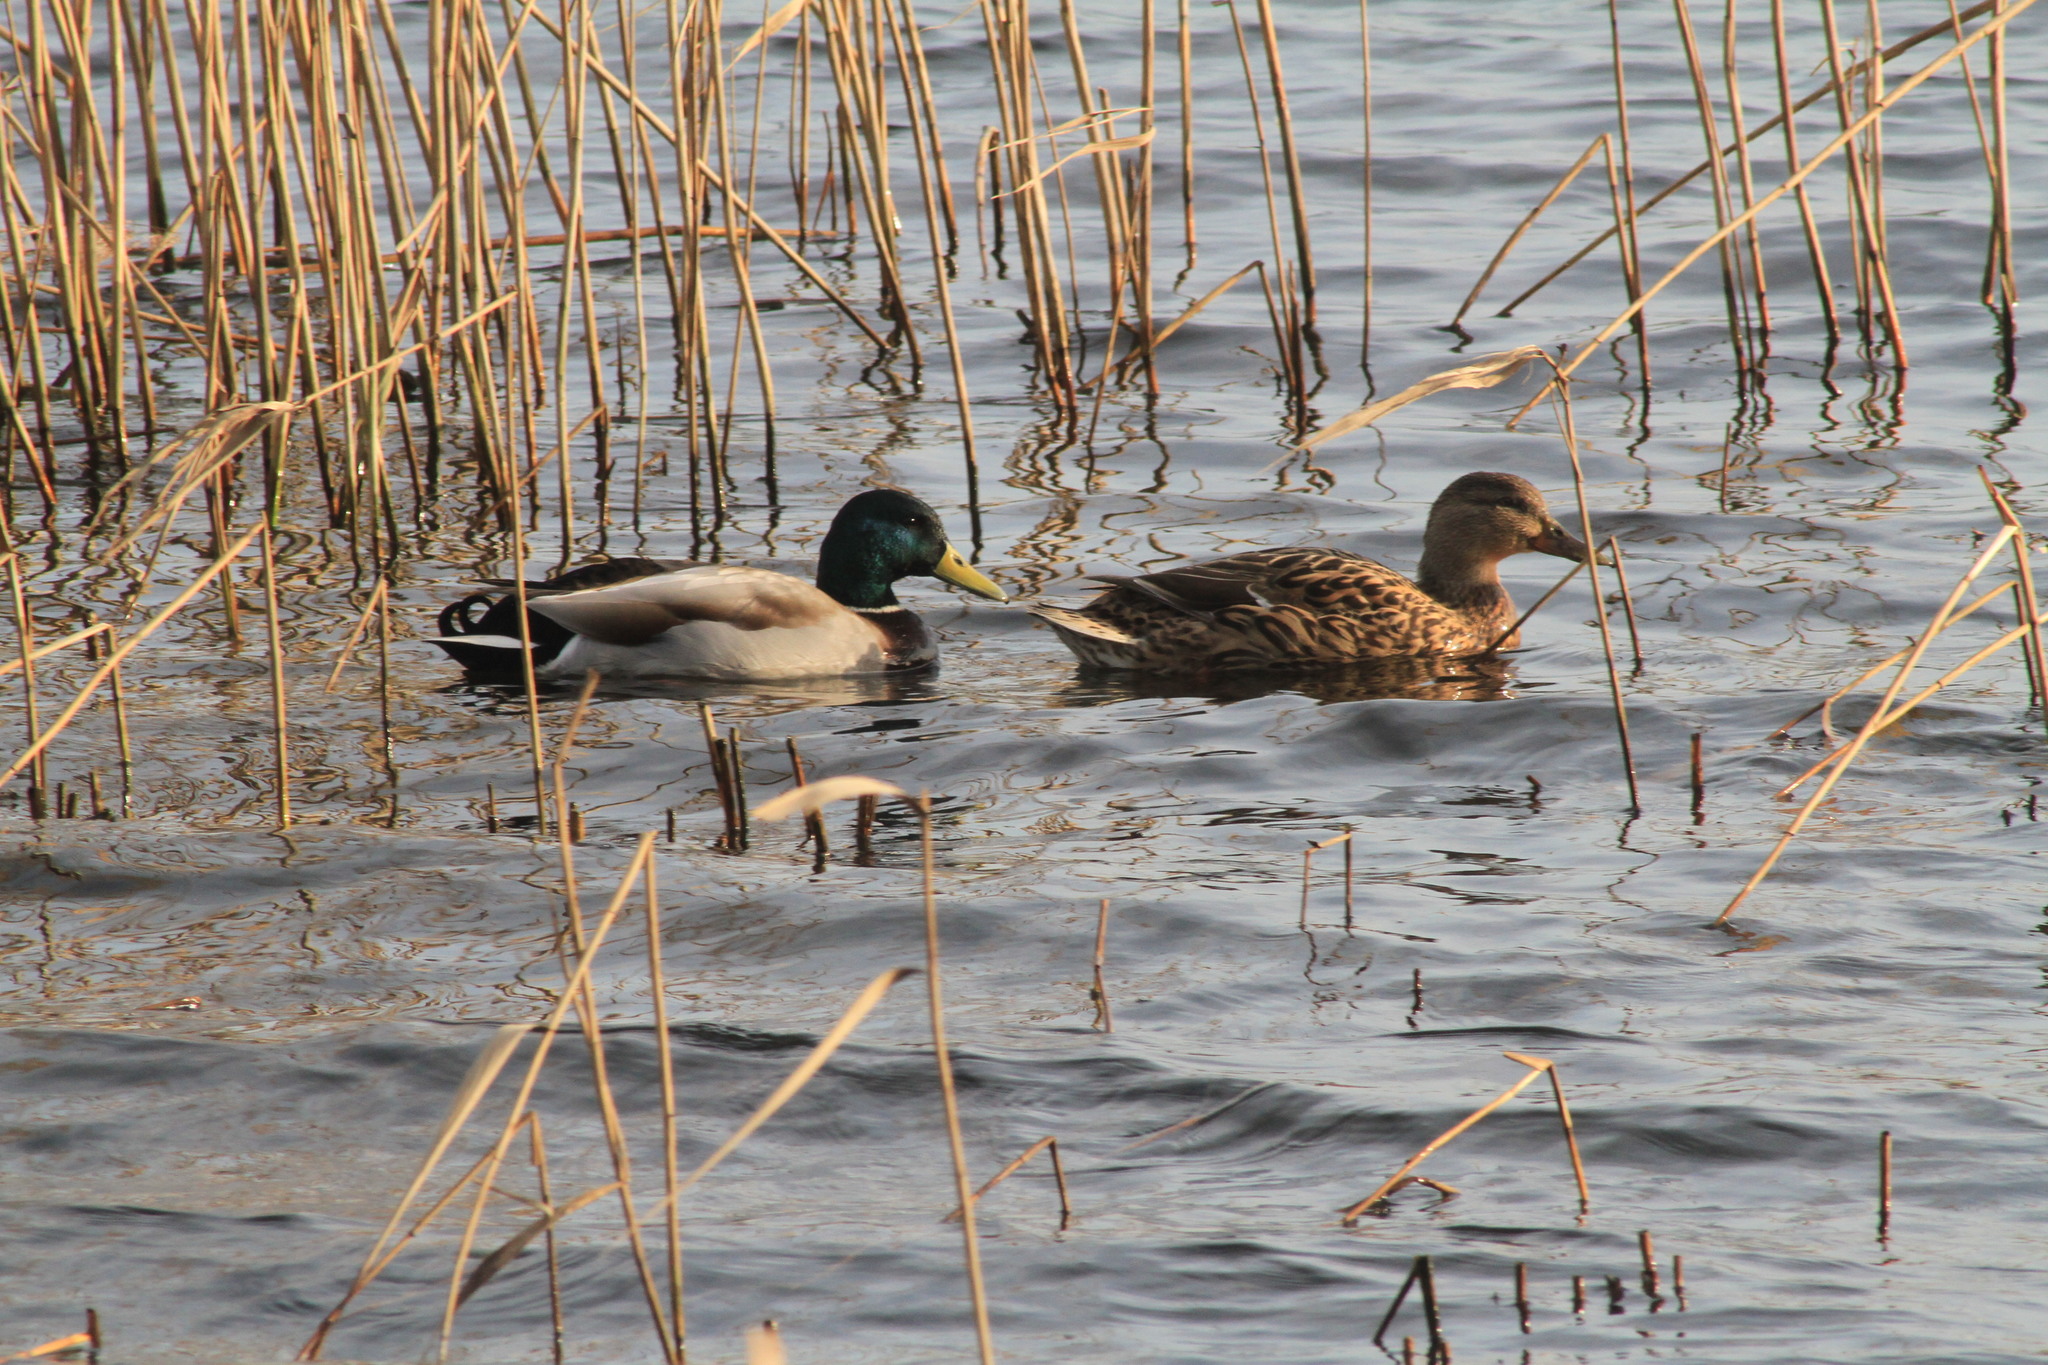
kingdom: Animalia
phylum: Chordata
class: Aves
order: Anseriformes
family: Anatidae
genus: Anas
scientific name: Anas platyrhynchos
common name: Mallard
